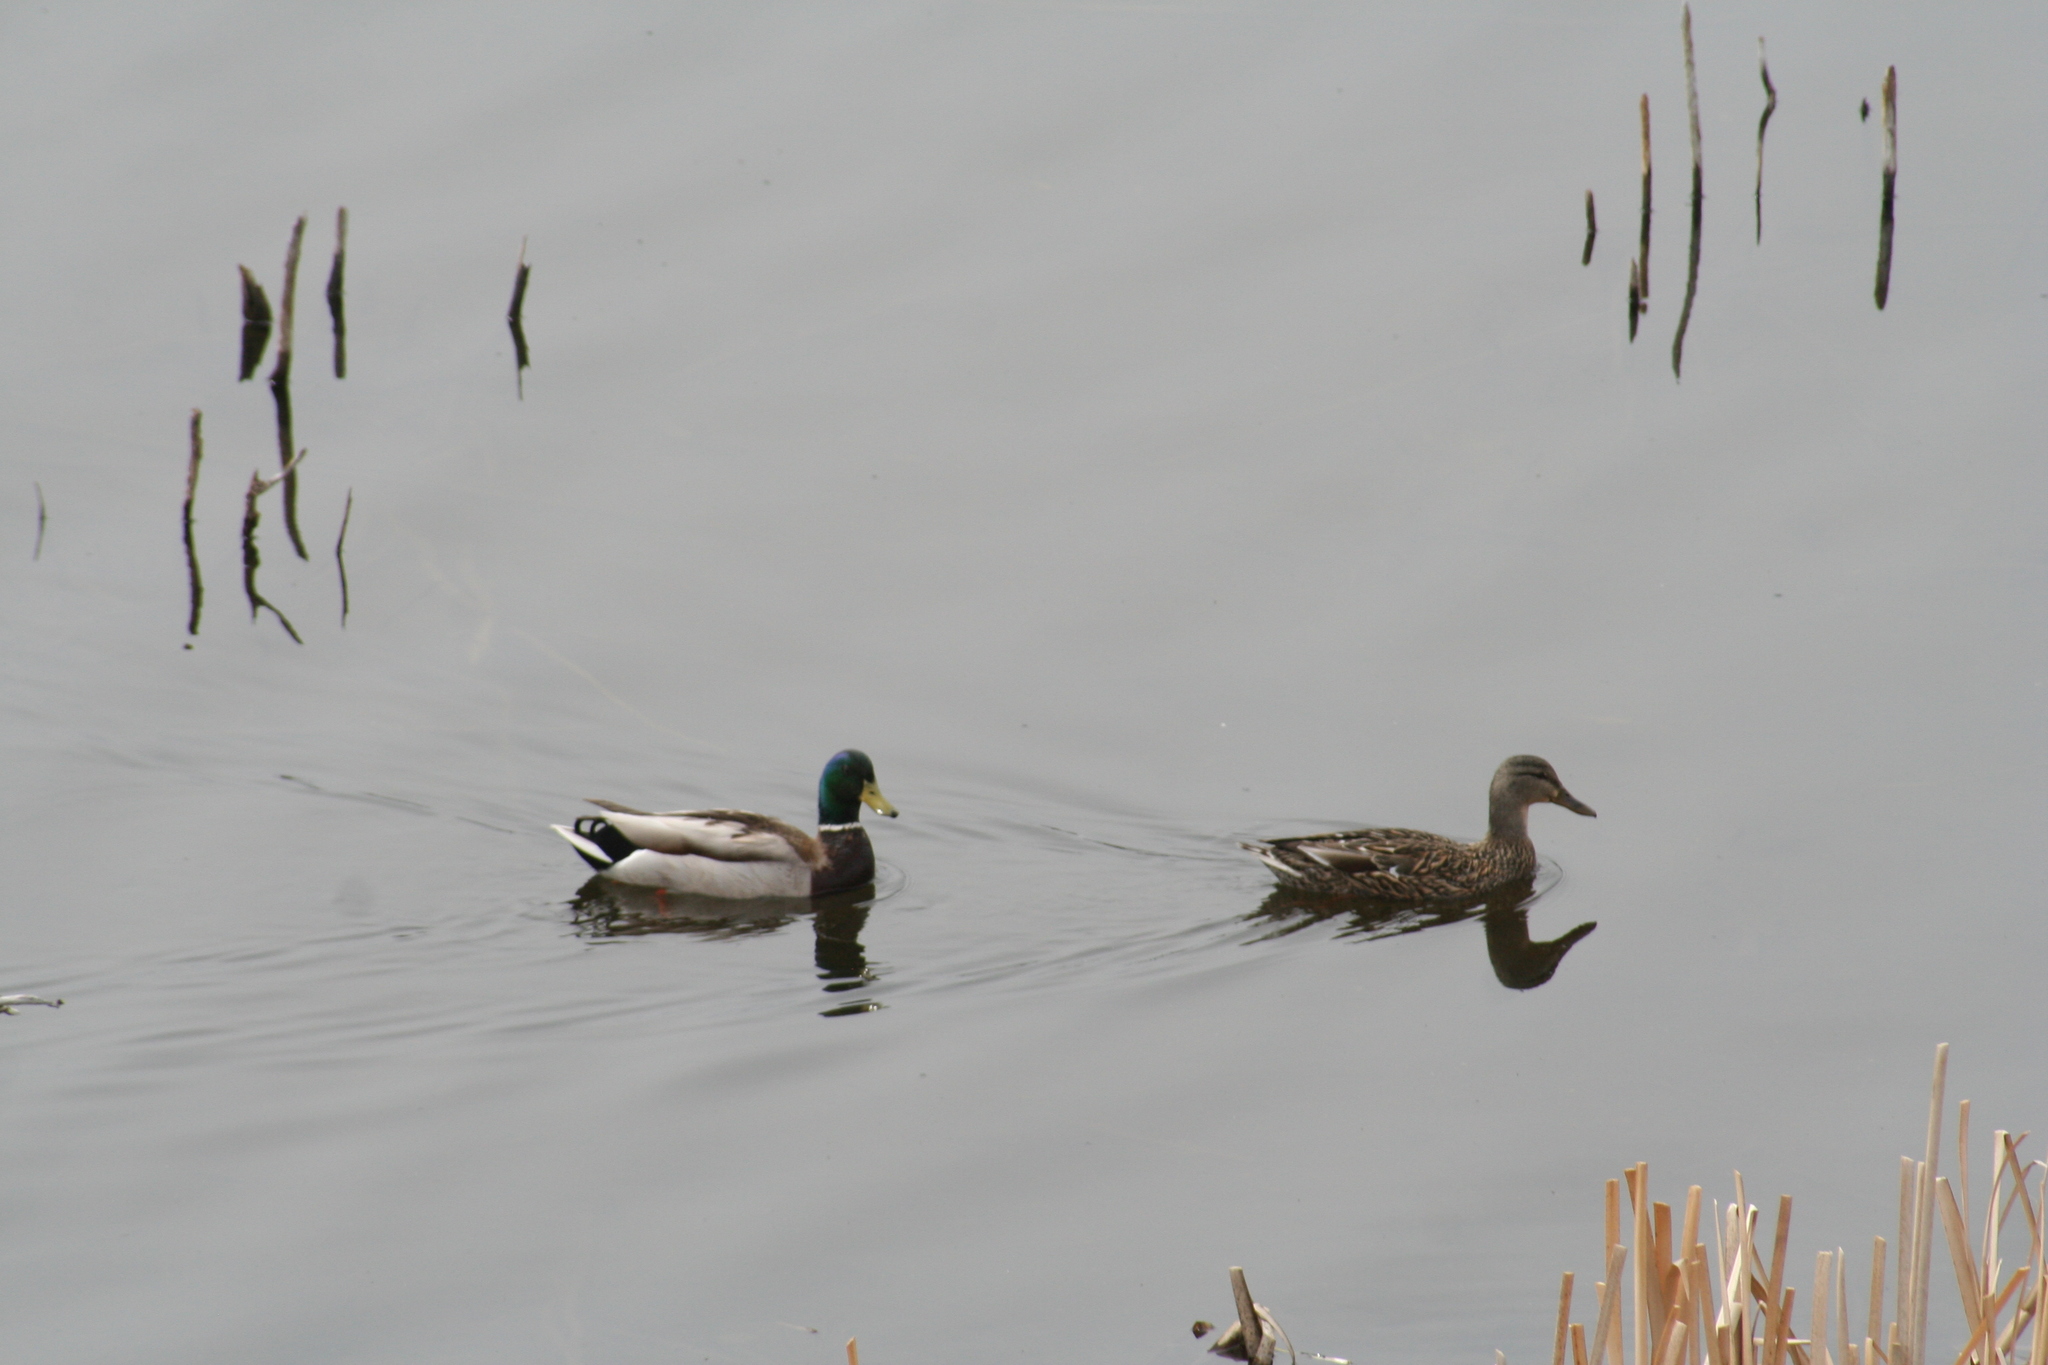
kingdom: Animalia
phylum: Chordata
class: Aves
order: Anseriformes
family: Anatidae
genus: Anas
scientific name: Anas platyrhynchos
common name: Mallard
